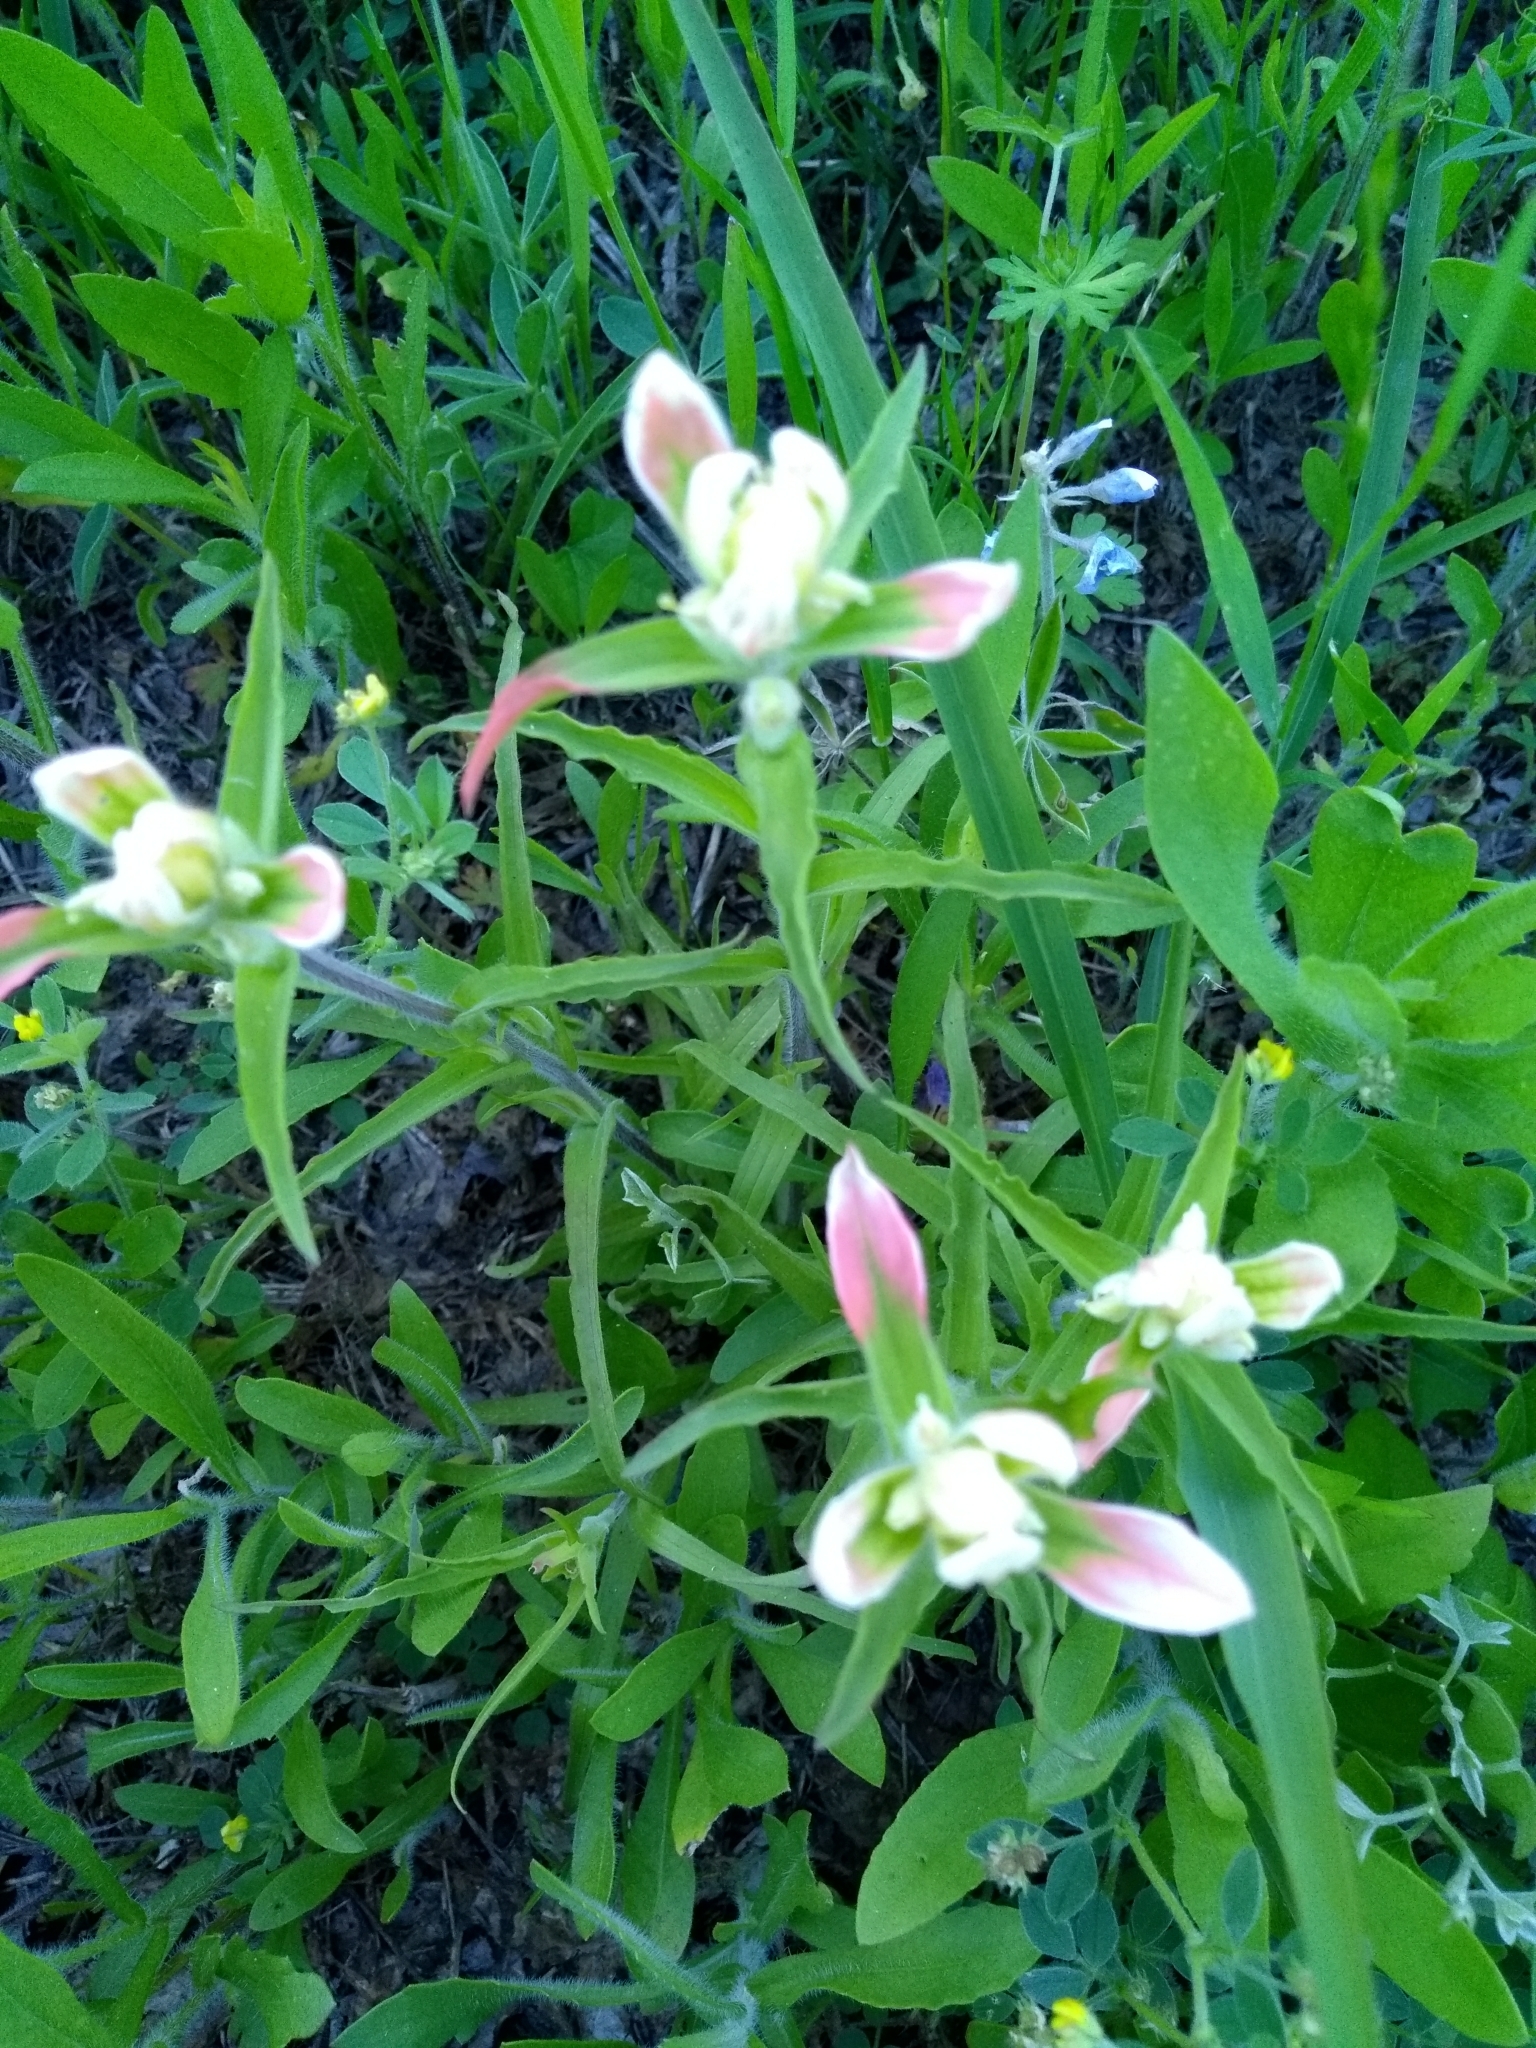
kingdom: Plantae
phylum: Tracheophyta
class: Magnoliopsida
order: Lamiales
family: Orobanchaceae
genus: Castilleja
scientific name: Castilleja indivisa
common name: Texas paintbrush
